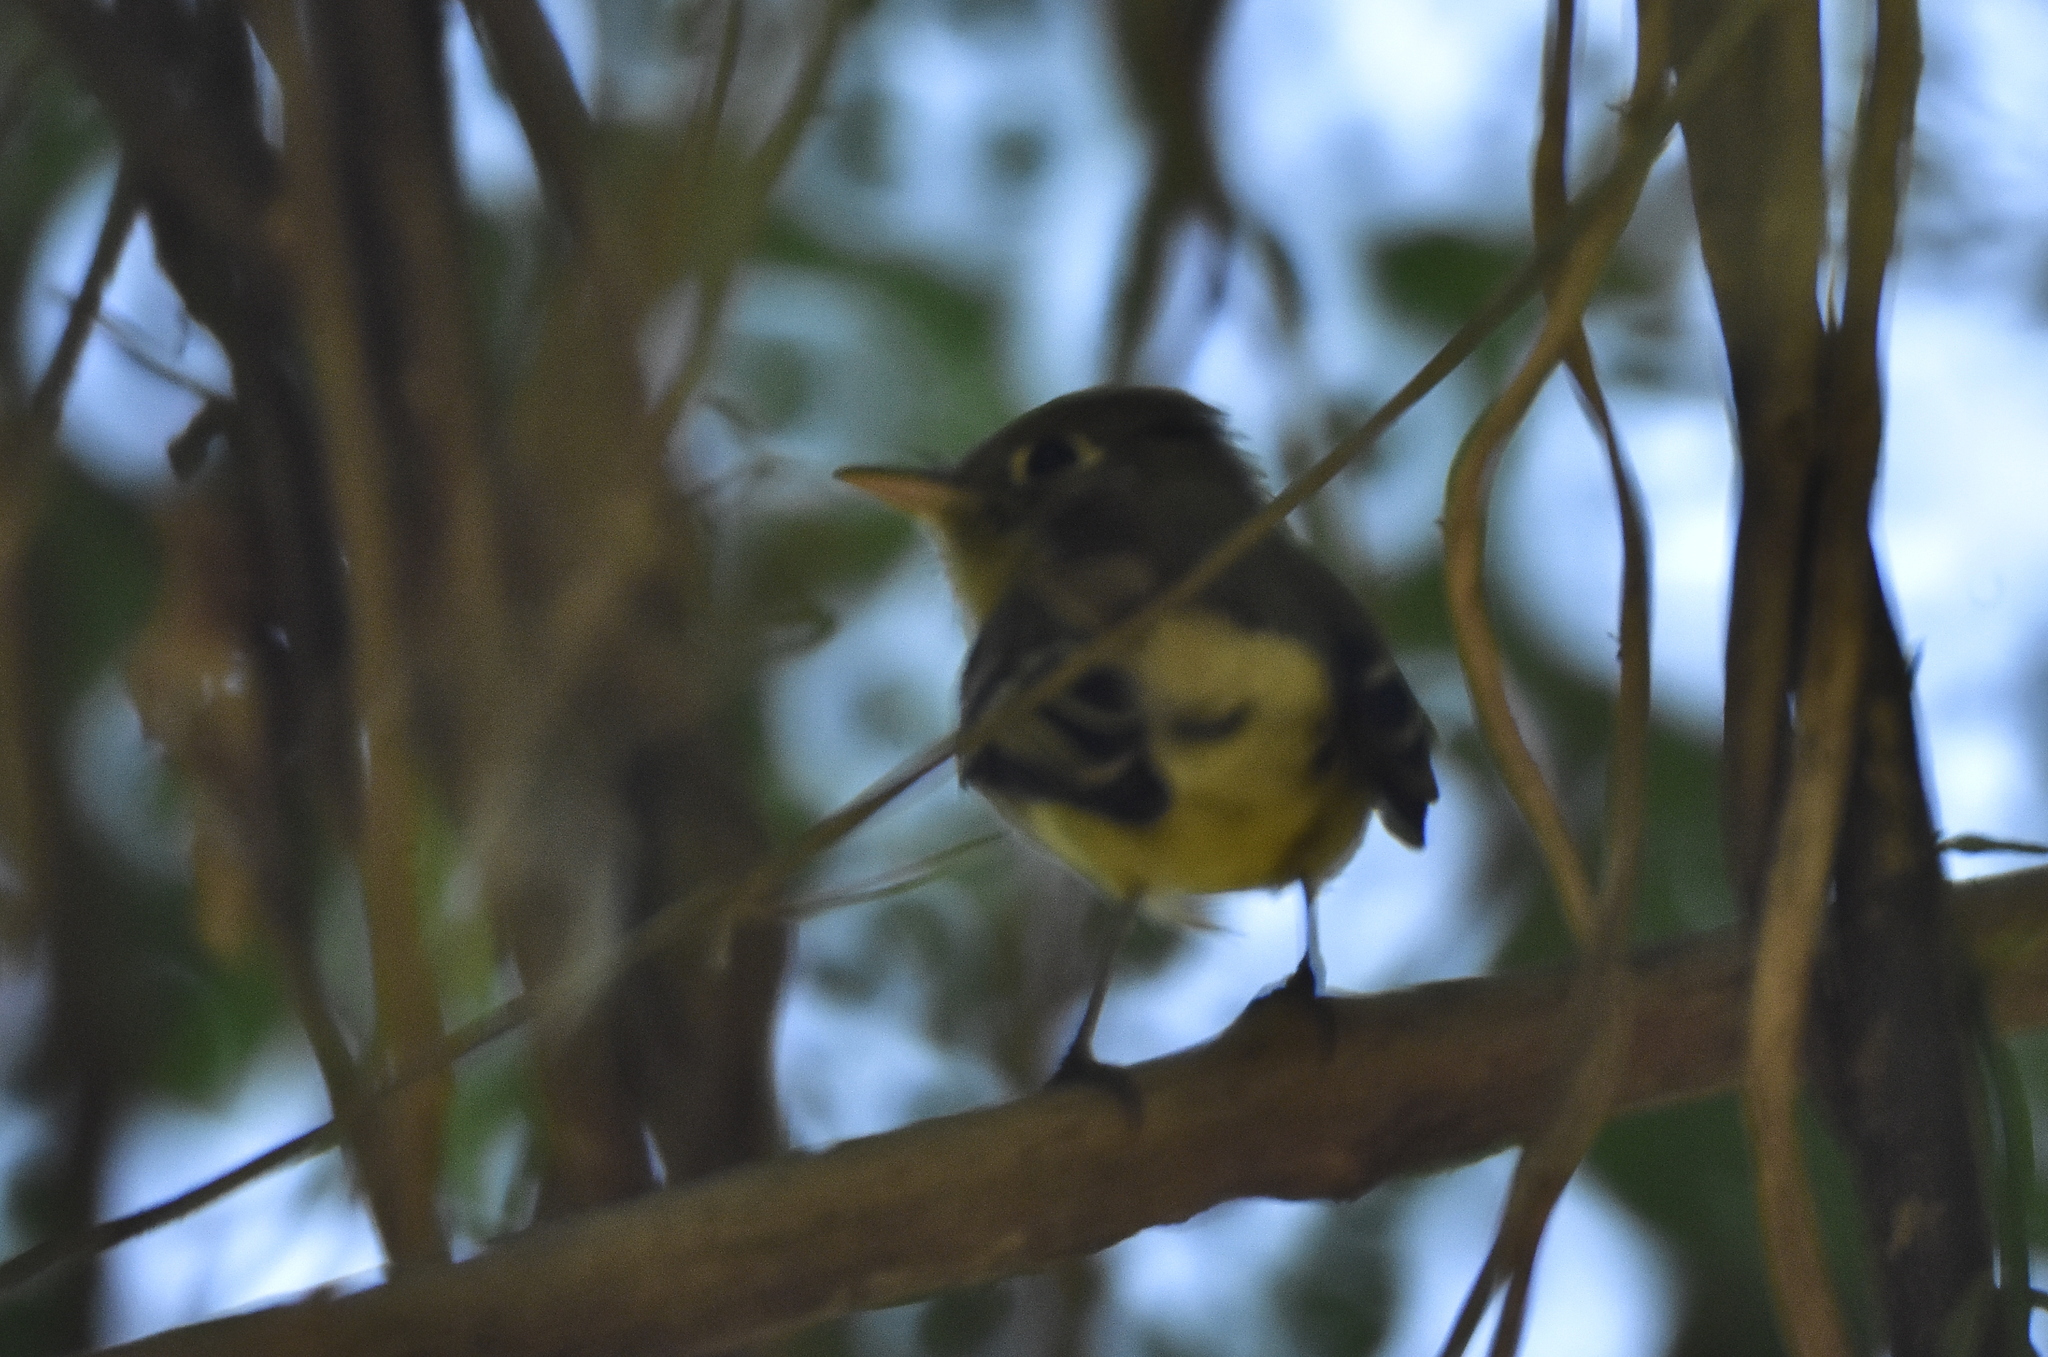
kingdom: Animalia
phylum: Chordata
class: Aves
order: Passeriformes
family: Tyrannidae
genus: Empidonax
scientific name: Empidonax difficilis
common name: Pacific-slope flycatcher
